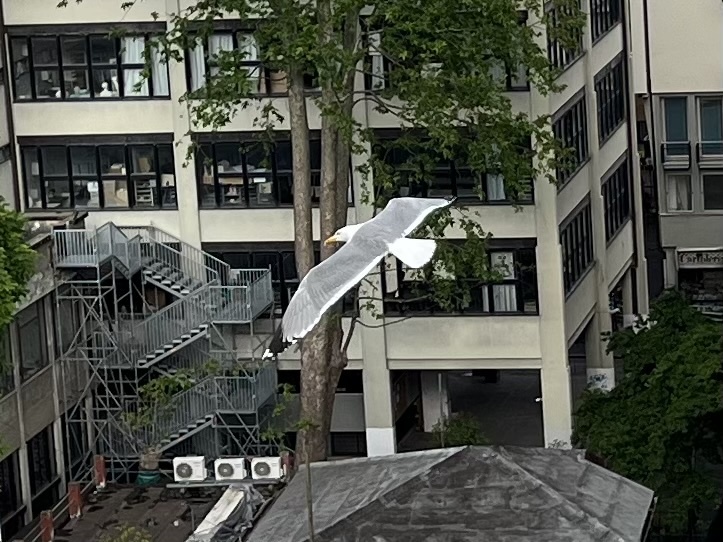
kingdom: Animalia
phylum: Chordata
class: Aves
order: Charadriiformes
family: Laridae
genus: Larus
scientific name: Larus argentatus
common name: Herring gull
